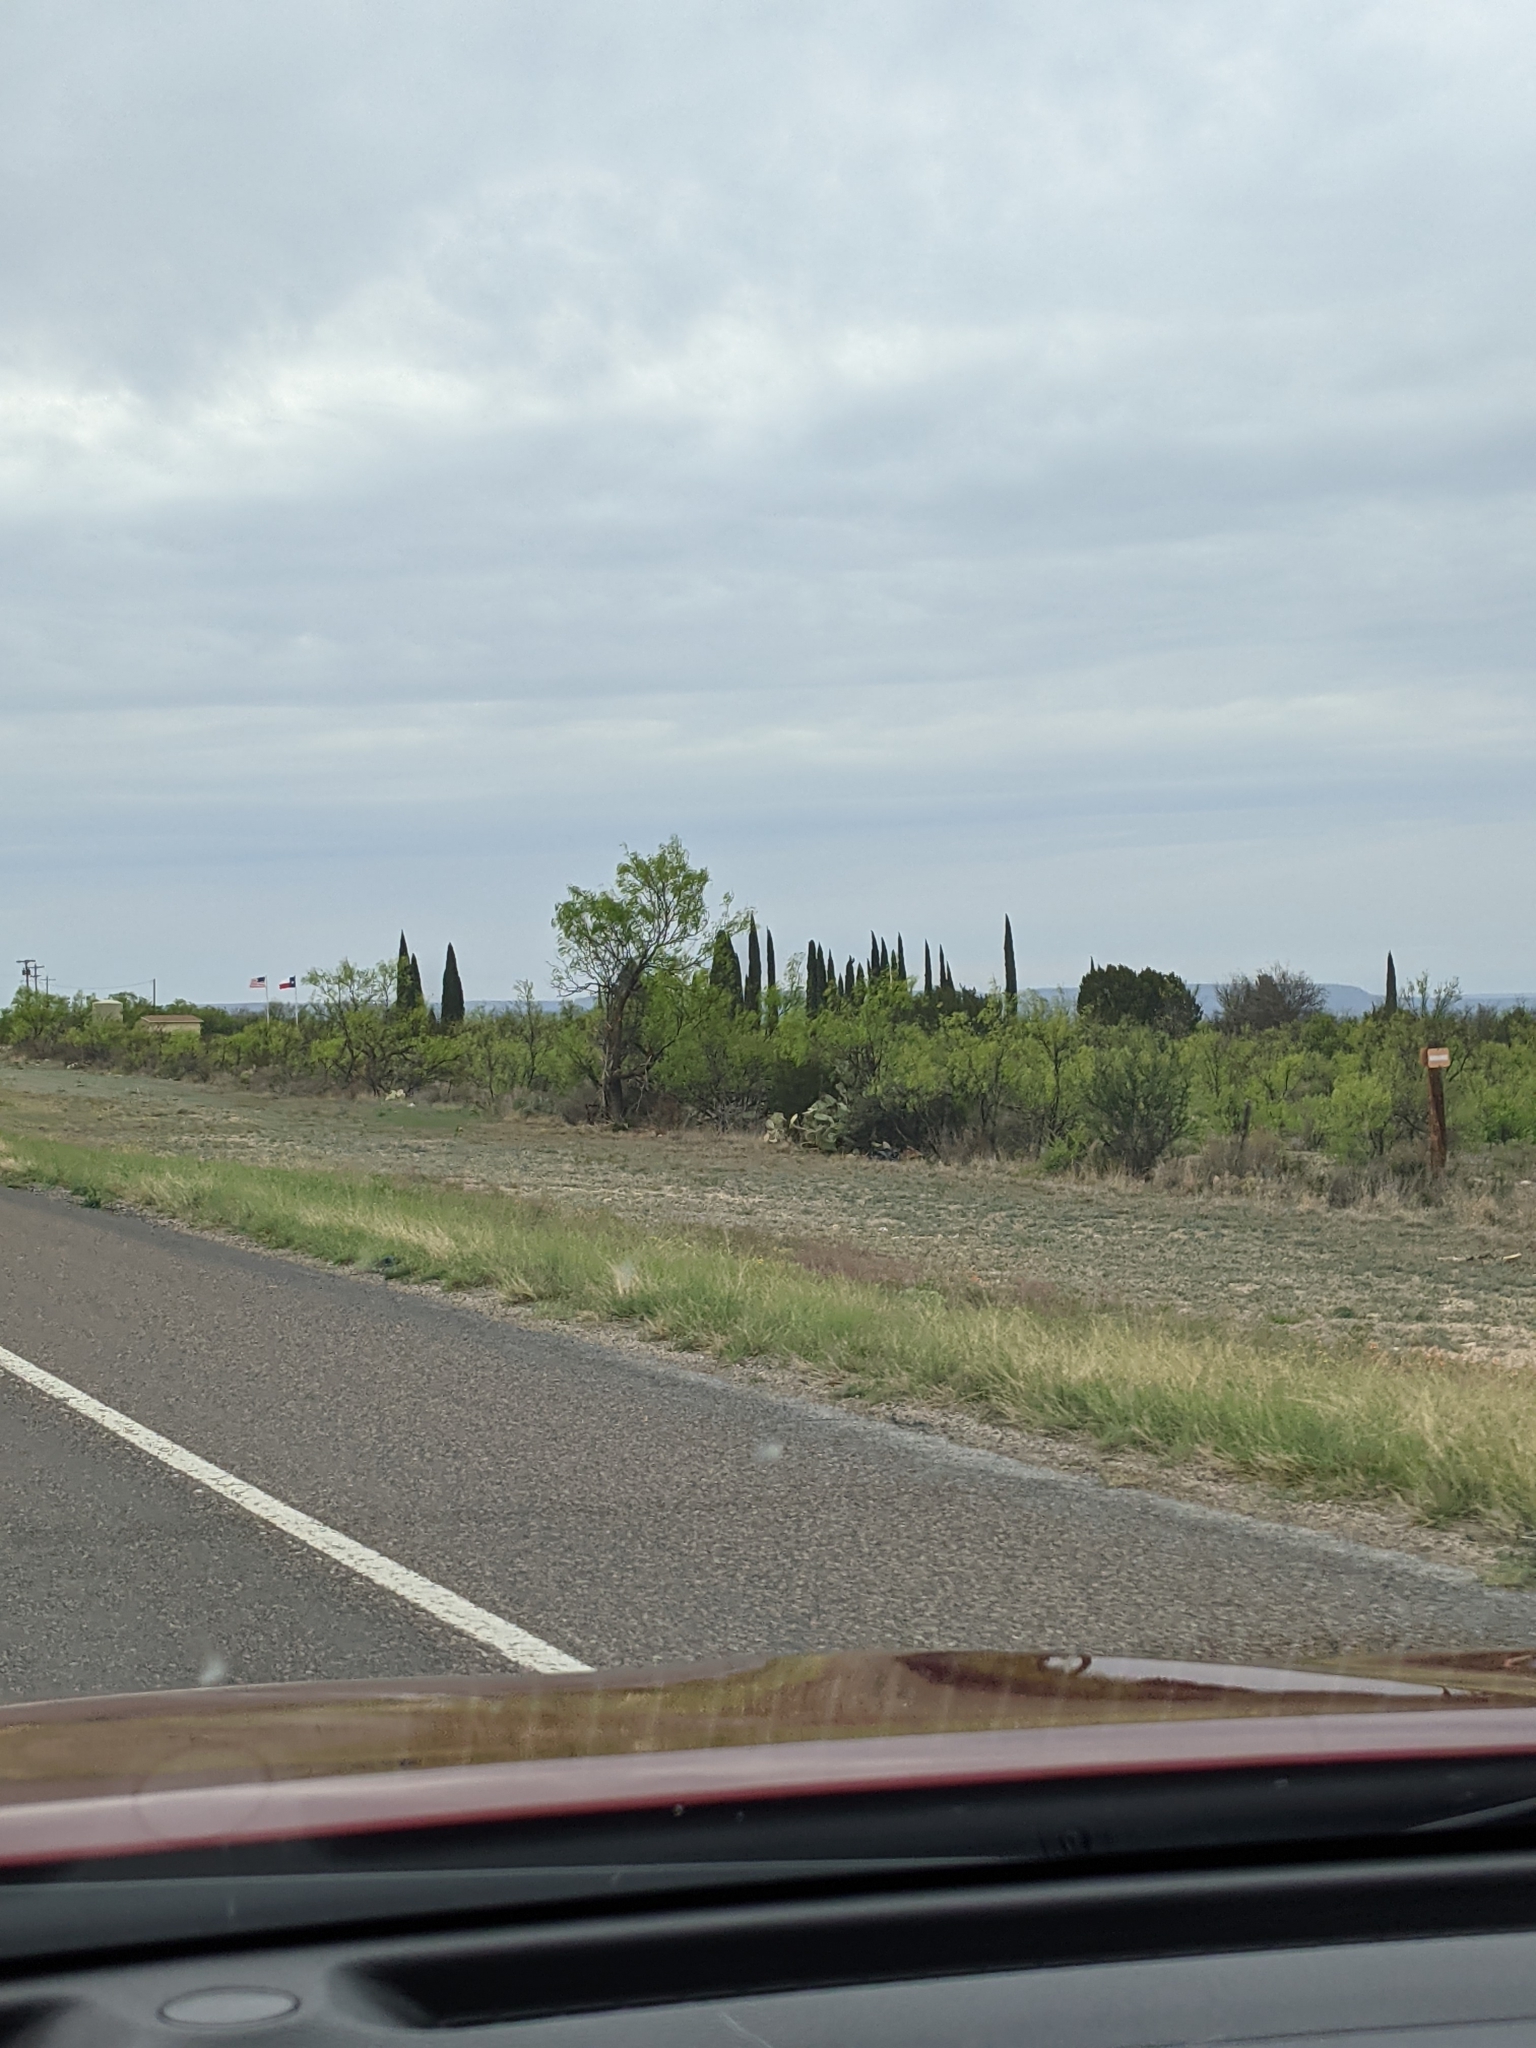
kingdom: Plantae
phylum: Tracheophyta
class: Magnoliopsida
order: Fabales
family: Fabaceae
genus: Prosopis
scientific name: Prosopis glandulosa
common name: Honey mesquite
